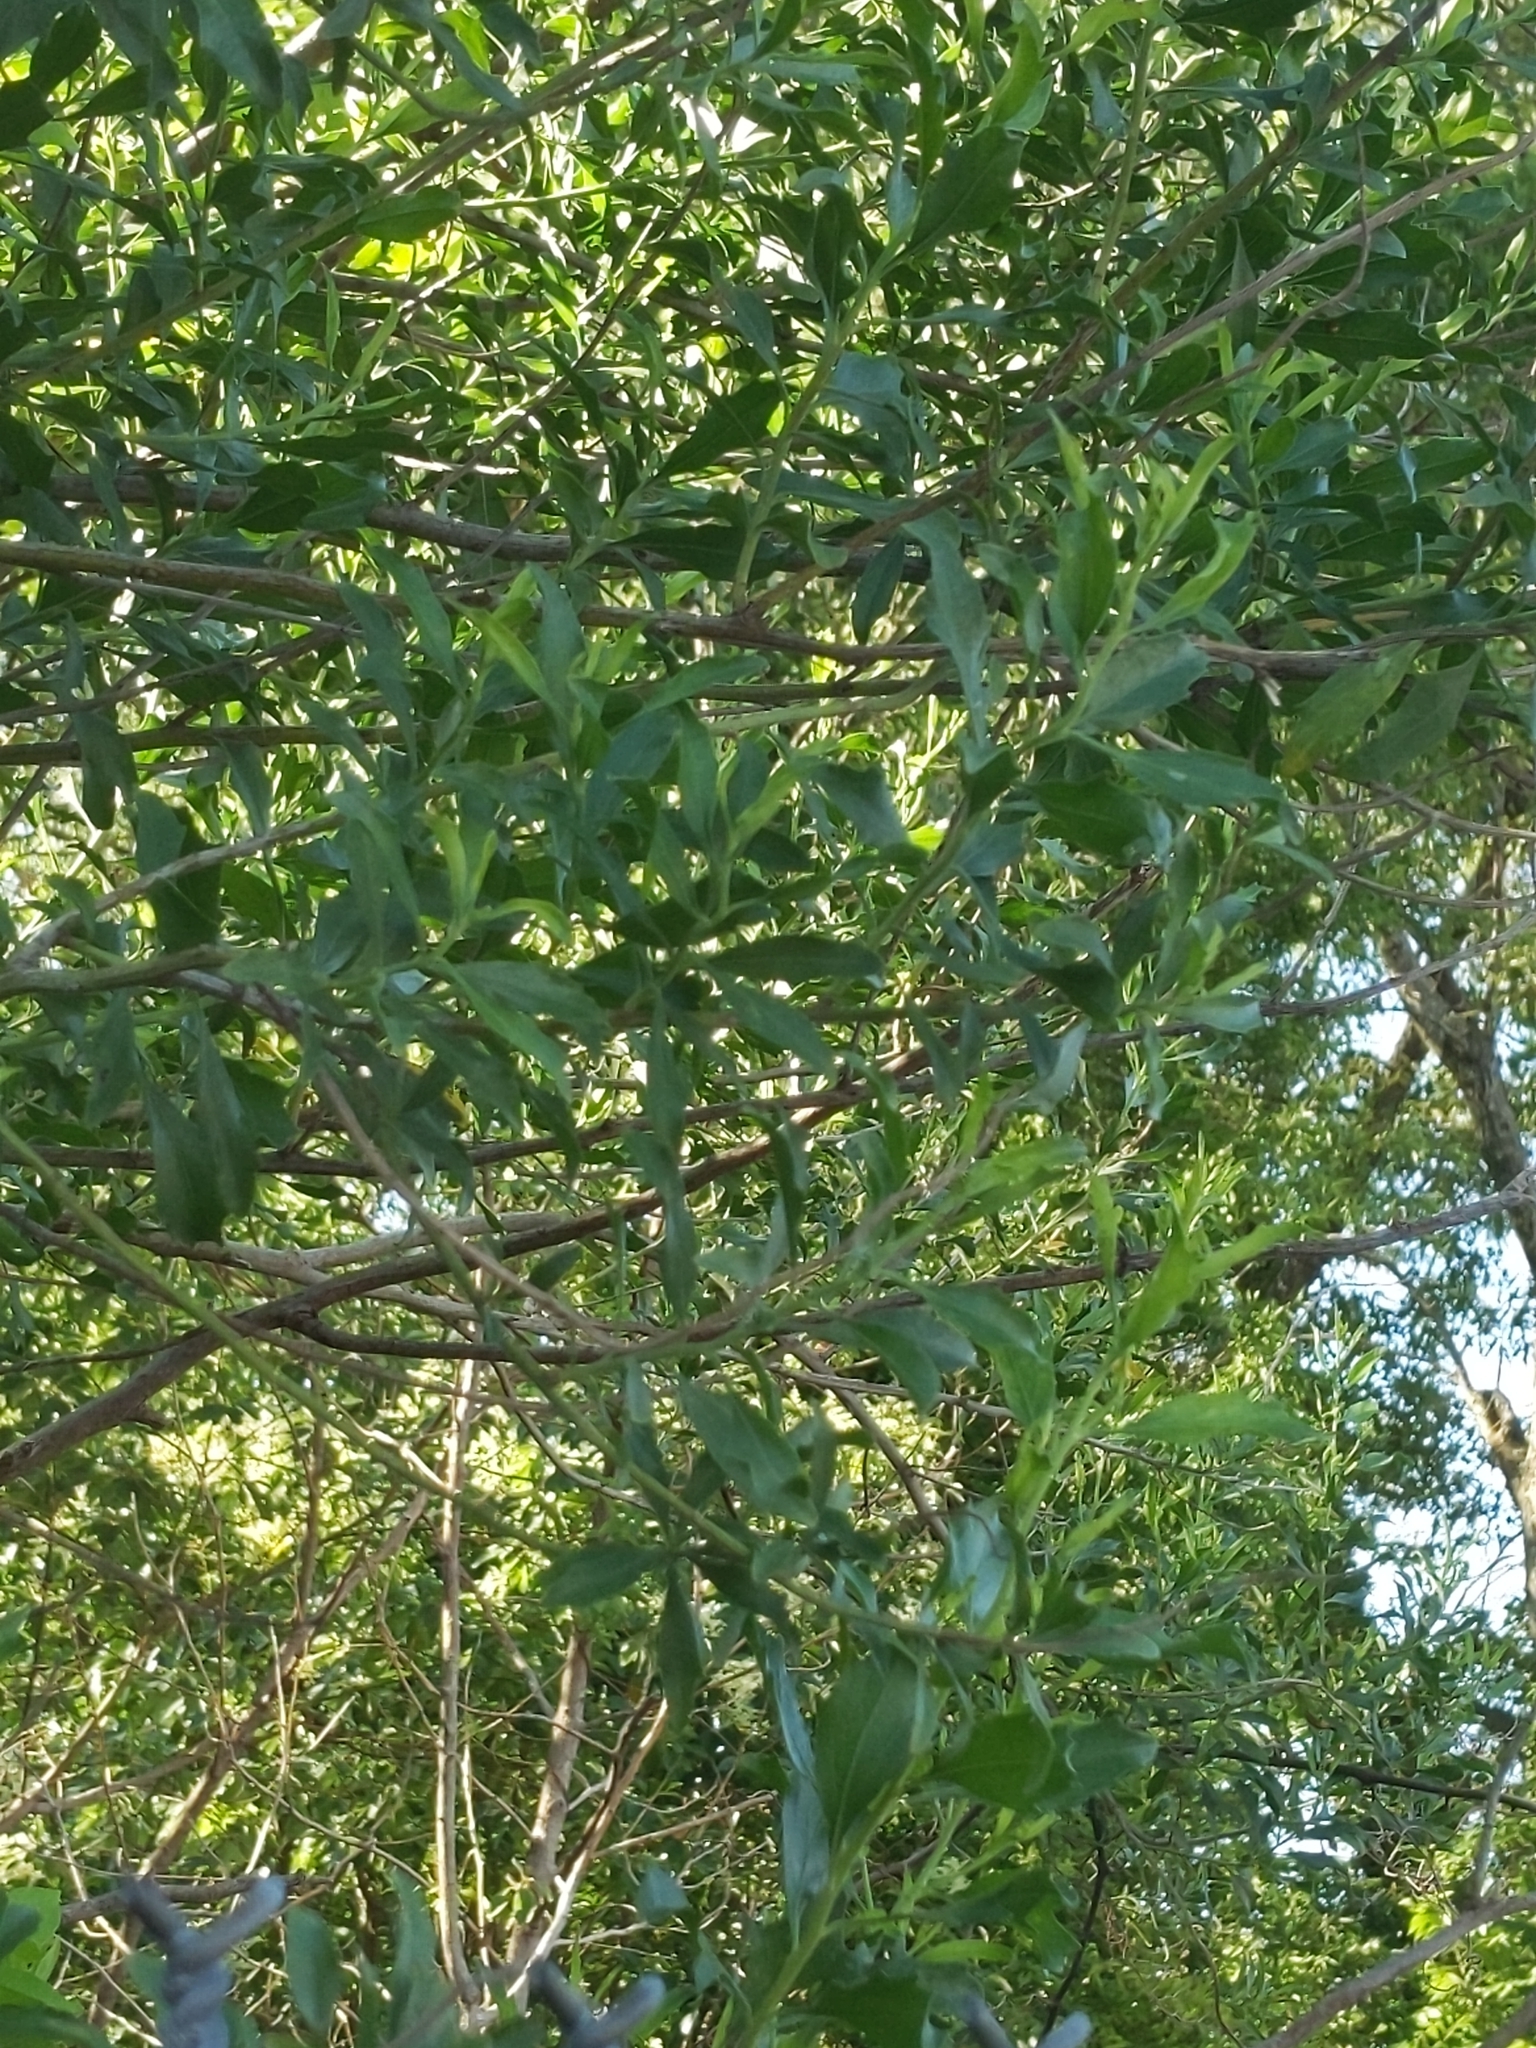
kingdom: Plantae
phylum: Tracheophyta
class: Magnoliopsida
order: Asterales
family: Asteraceae
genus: Baccharis
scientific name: Baccharis halimifolia
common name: Eastern baccharis
